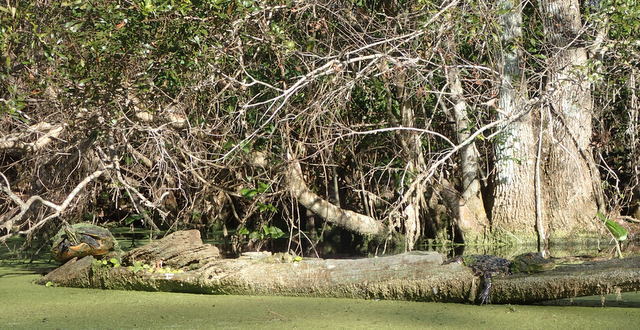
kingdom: Animalia
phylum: Chordata
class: Crocodylia
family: Alligatoridae
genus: Alligator
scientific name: Alligator mississippiensis
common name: American alligator
